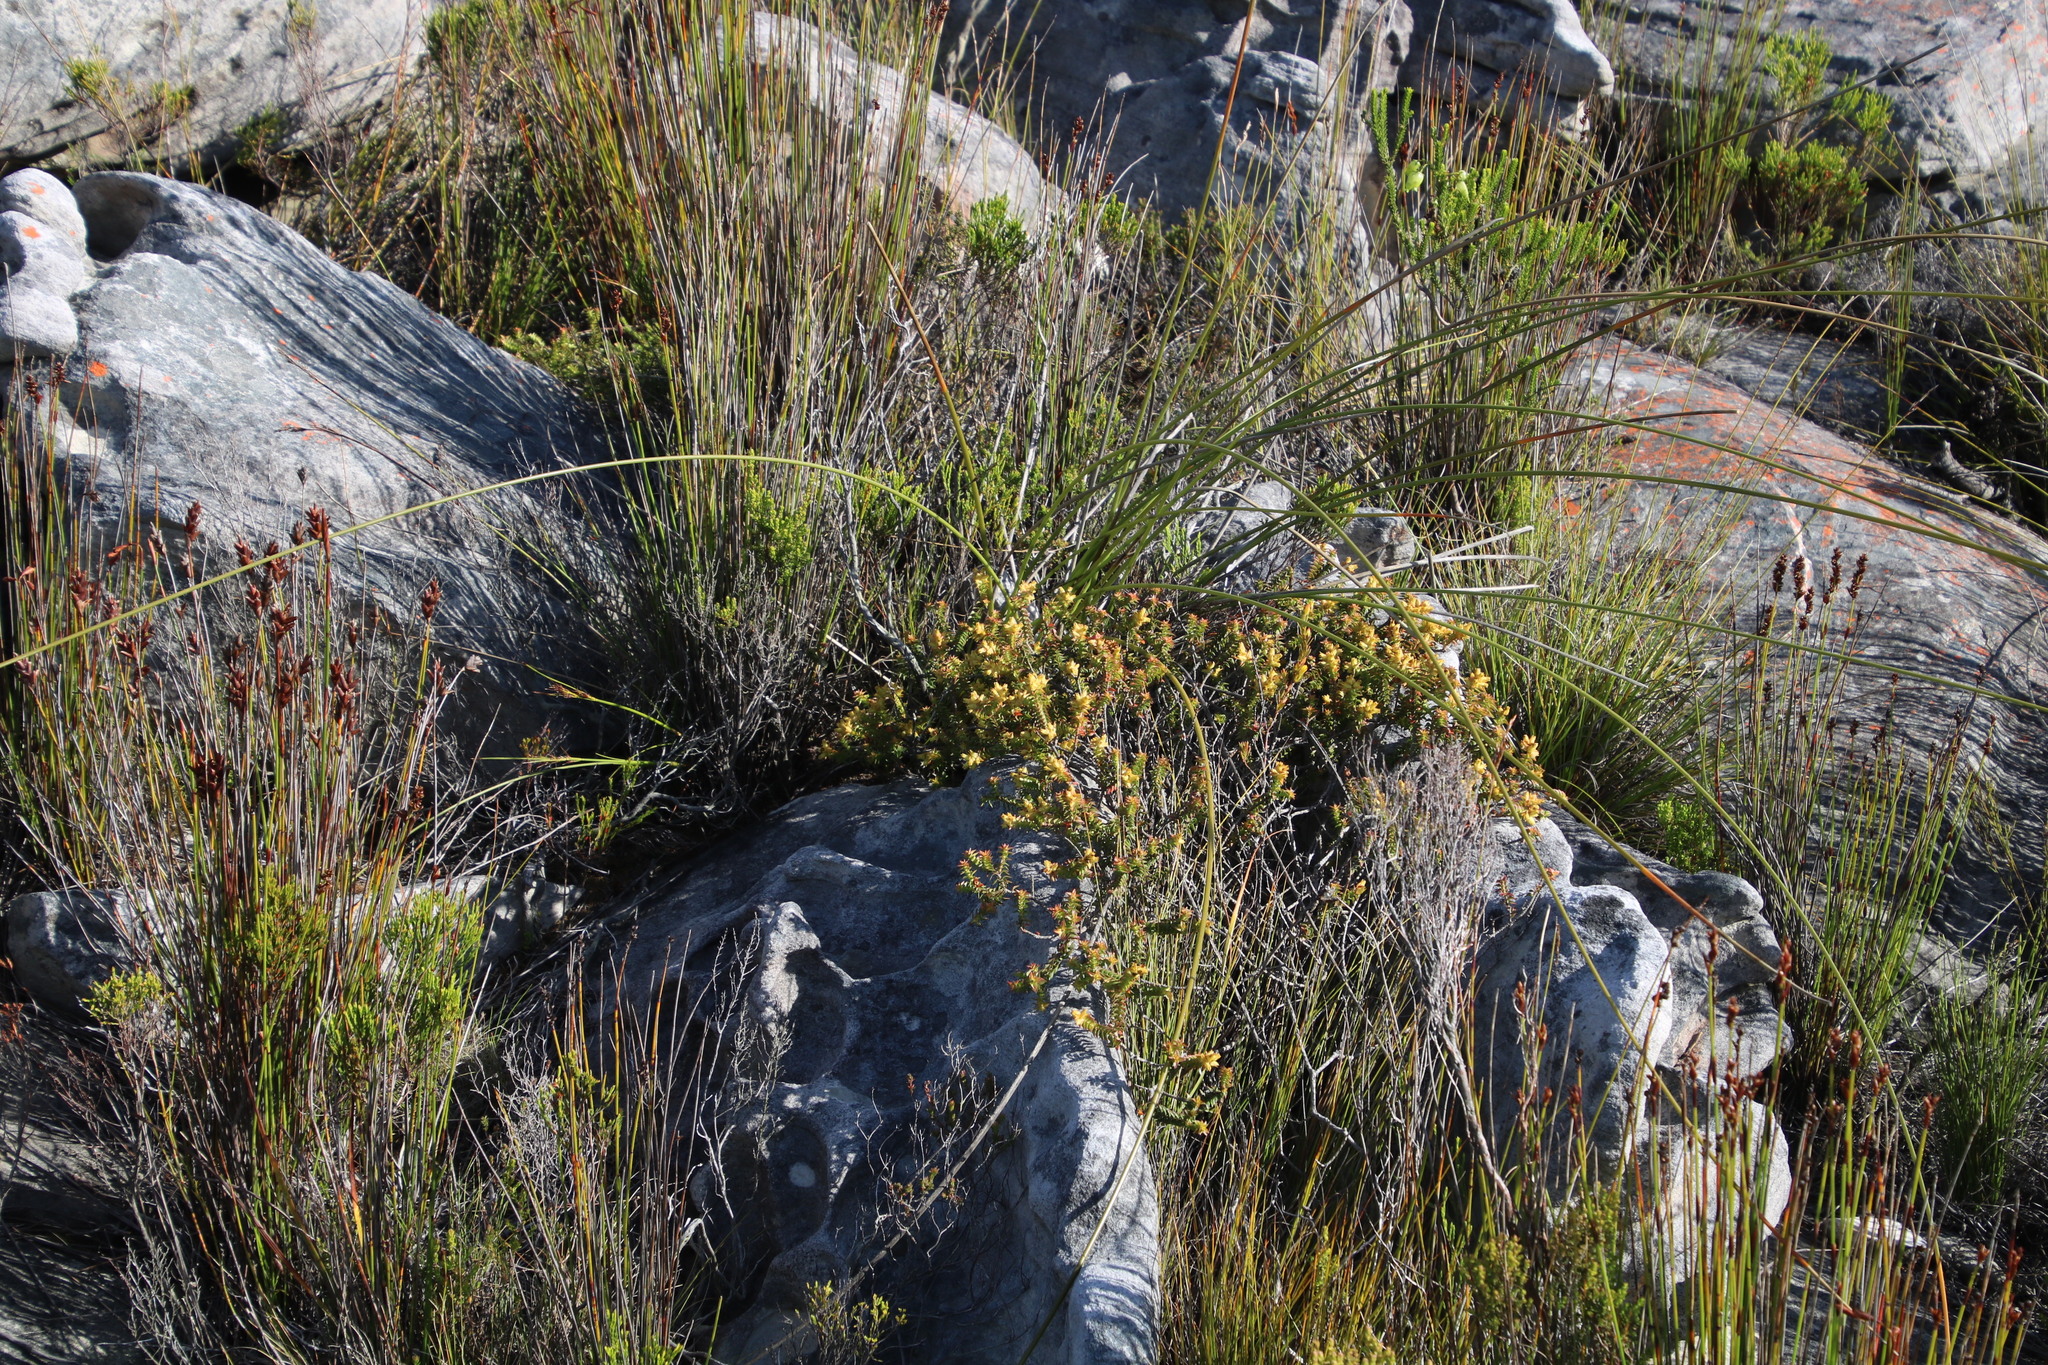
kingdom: Plantae
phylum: Tracheophyta
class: Magnoliopsida
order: Myrtales
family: Penaeaceae
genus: Penaea
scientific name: Penaea mucronata
